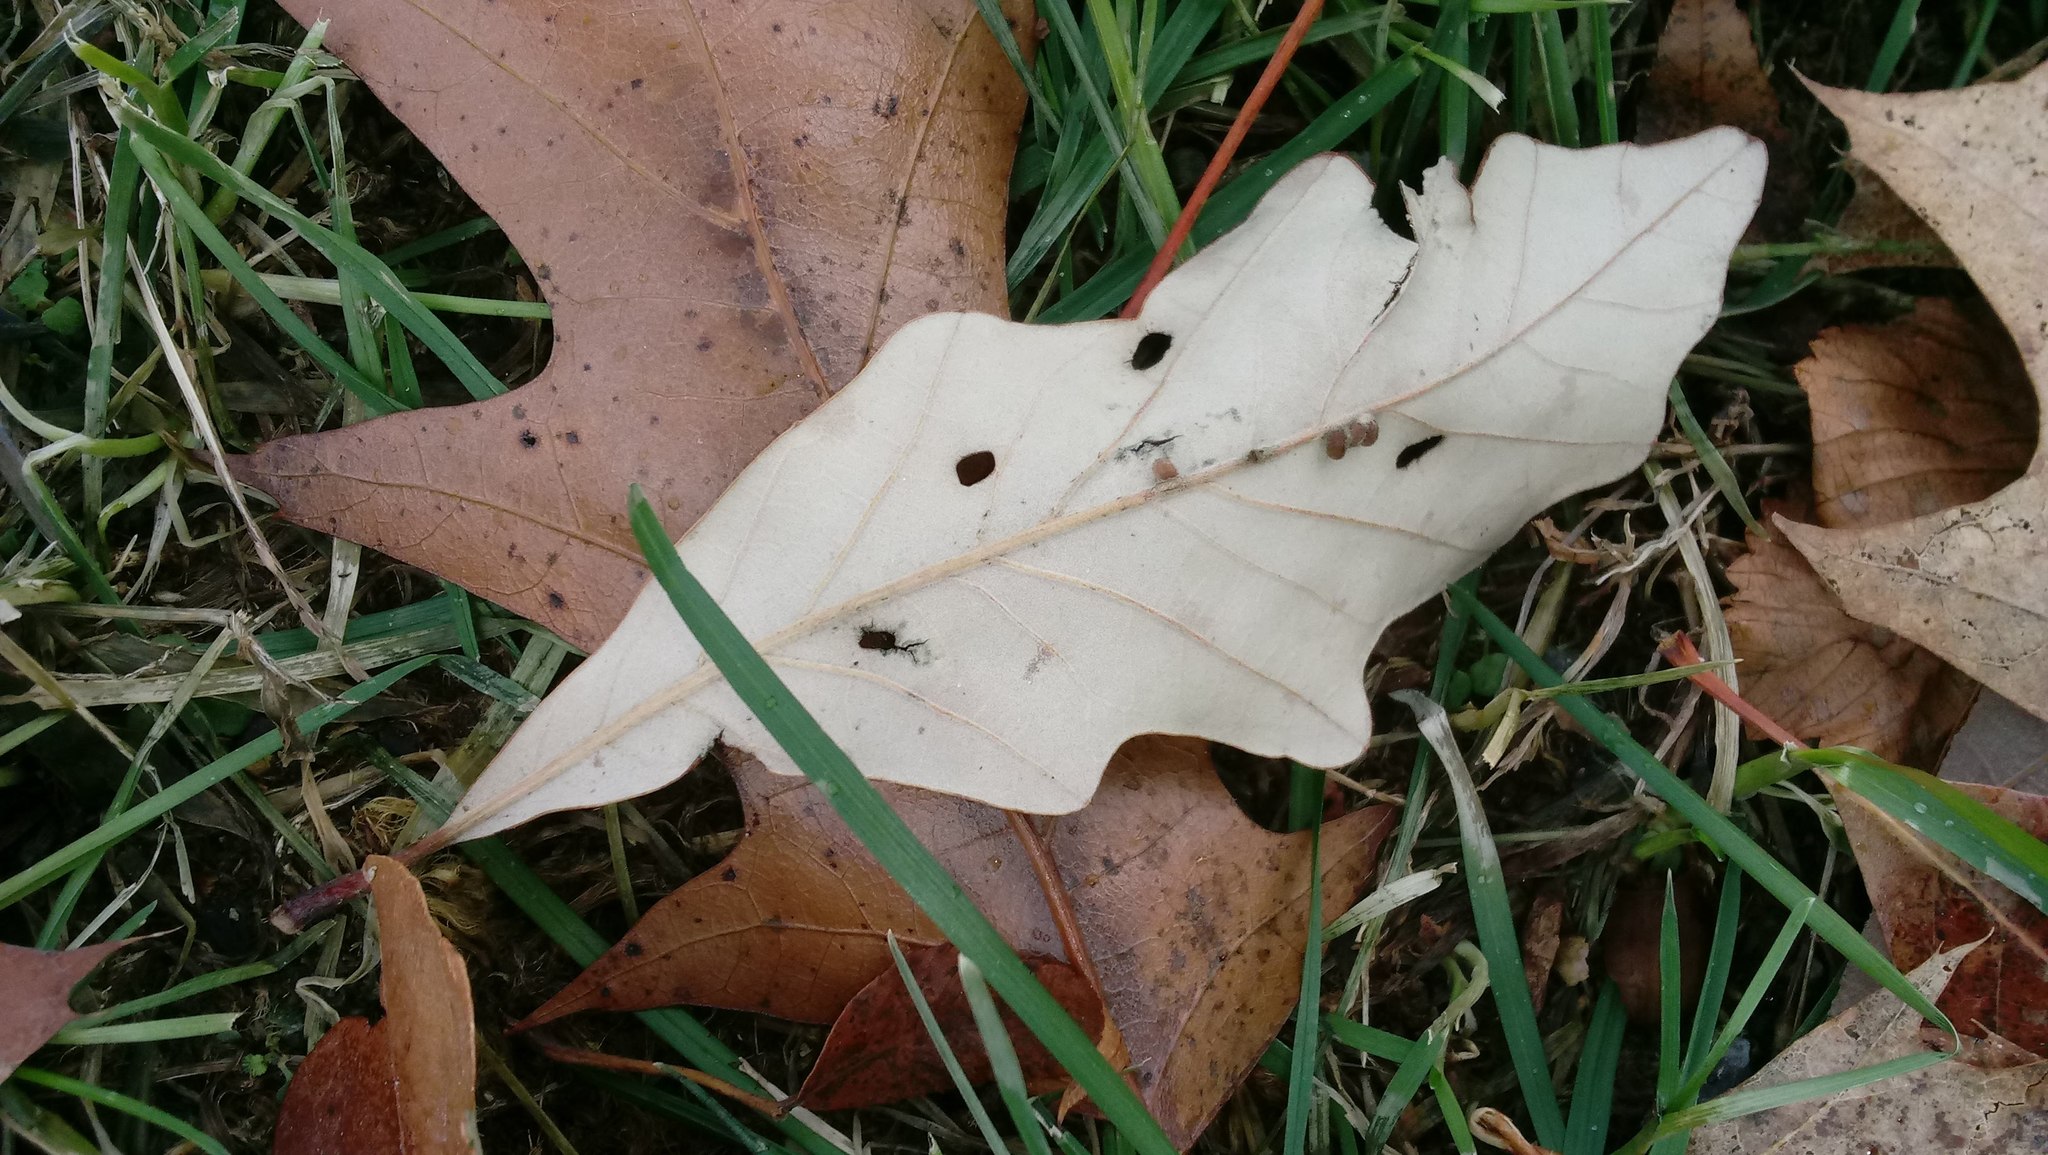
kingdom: Animalia
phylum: Arthropoda
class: Insecta
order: Hymenoptera
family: Cynipidae
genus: Andricus
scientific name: Andricus Druon ignotum
